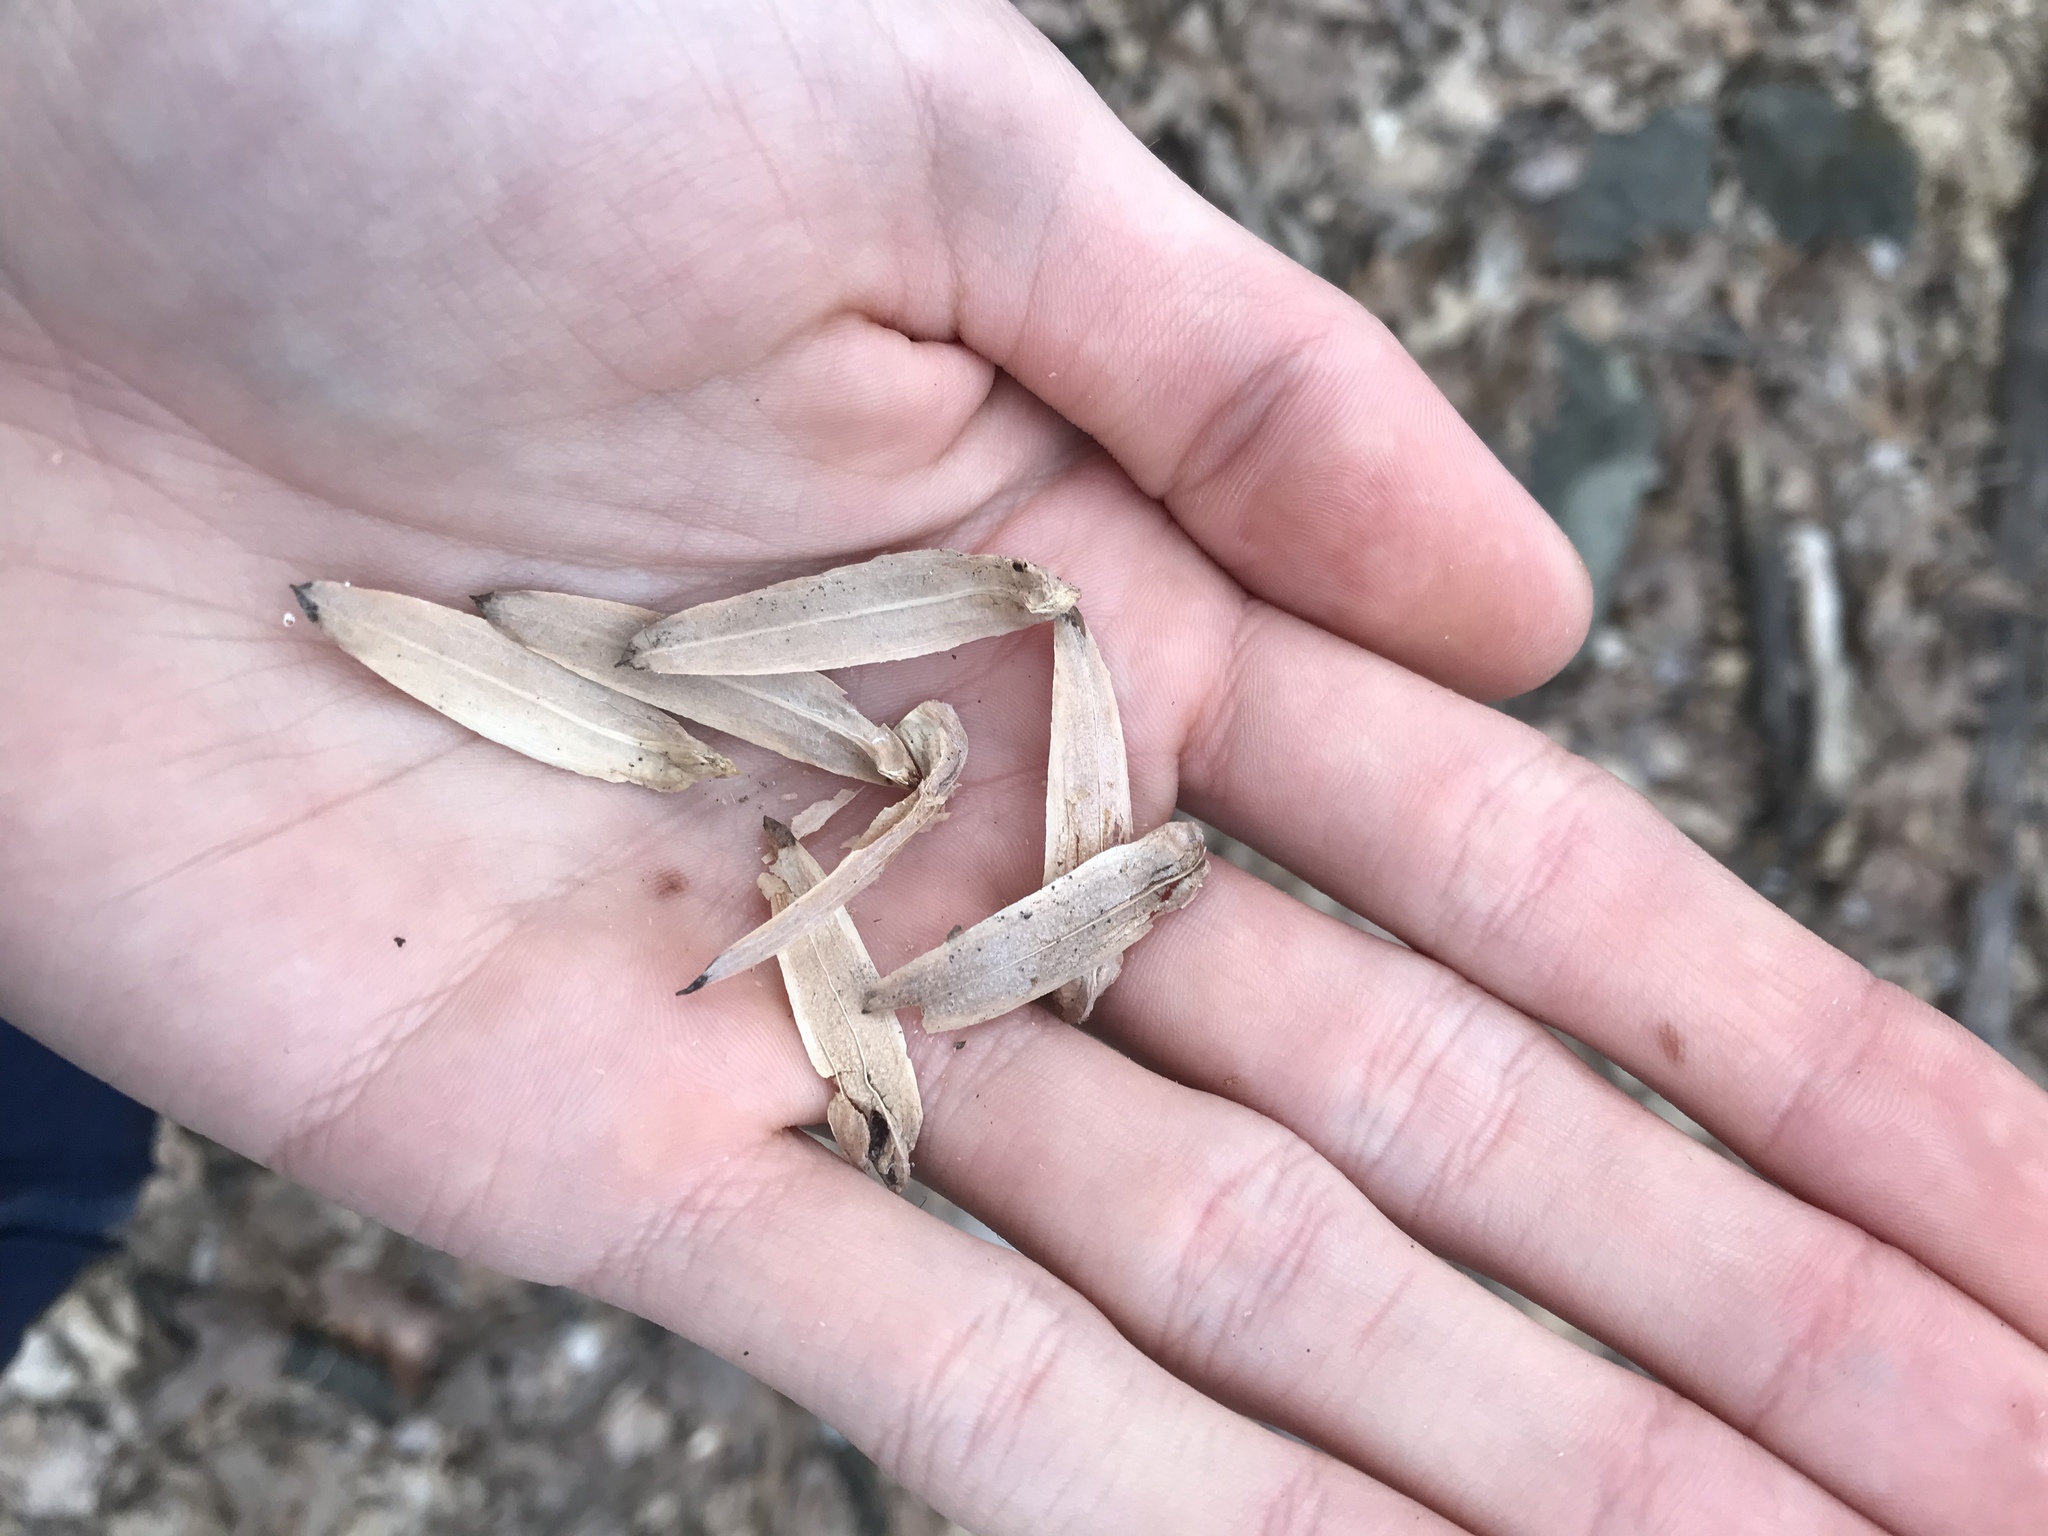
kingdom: Plantae
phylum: Tracheophyta
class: Magnoliopsida
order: Magnoliales
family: Magnoliaceae
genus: Liriodendron
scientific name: Liriodendron tulipifera
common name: Tulip tree
